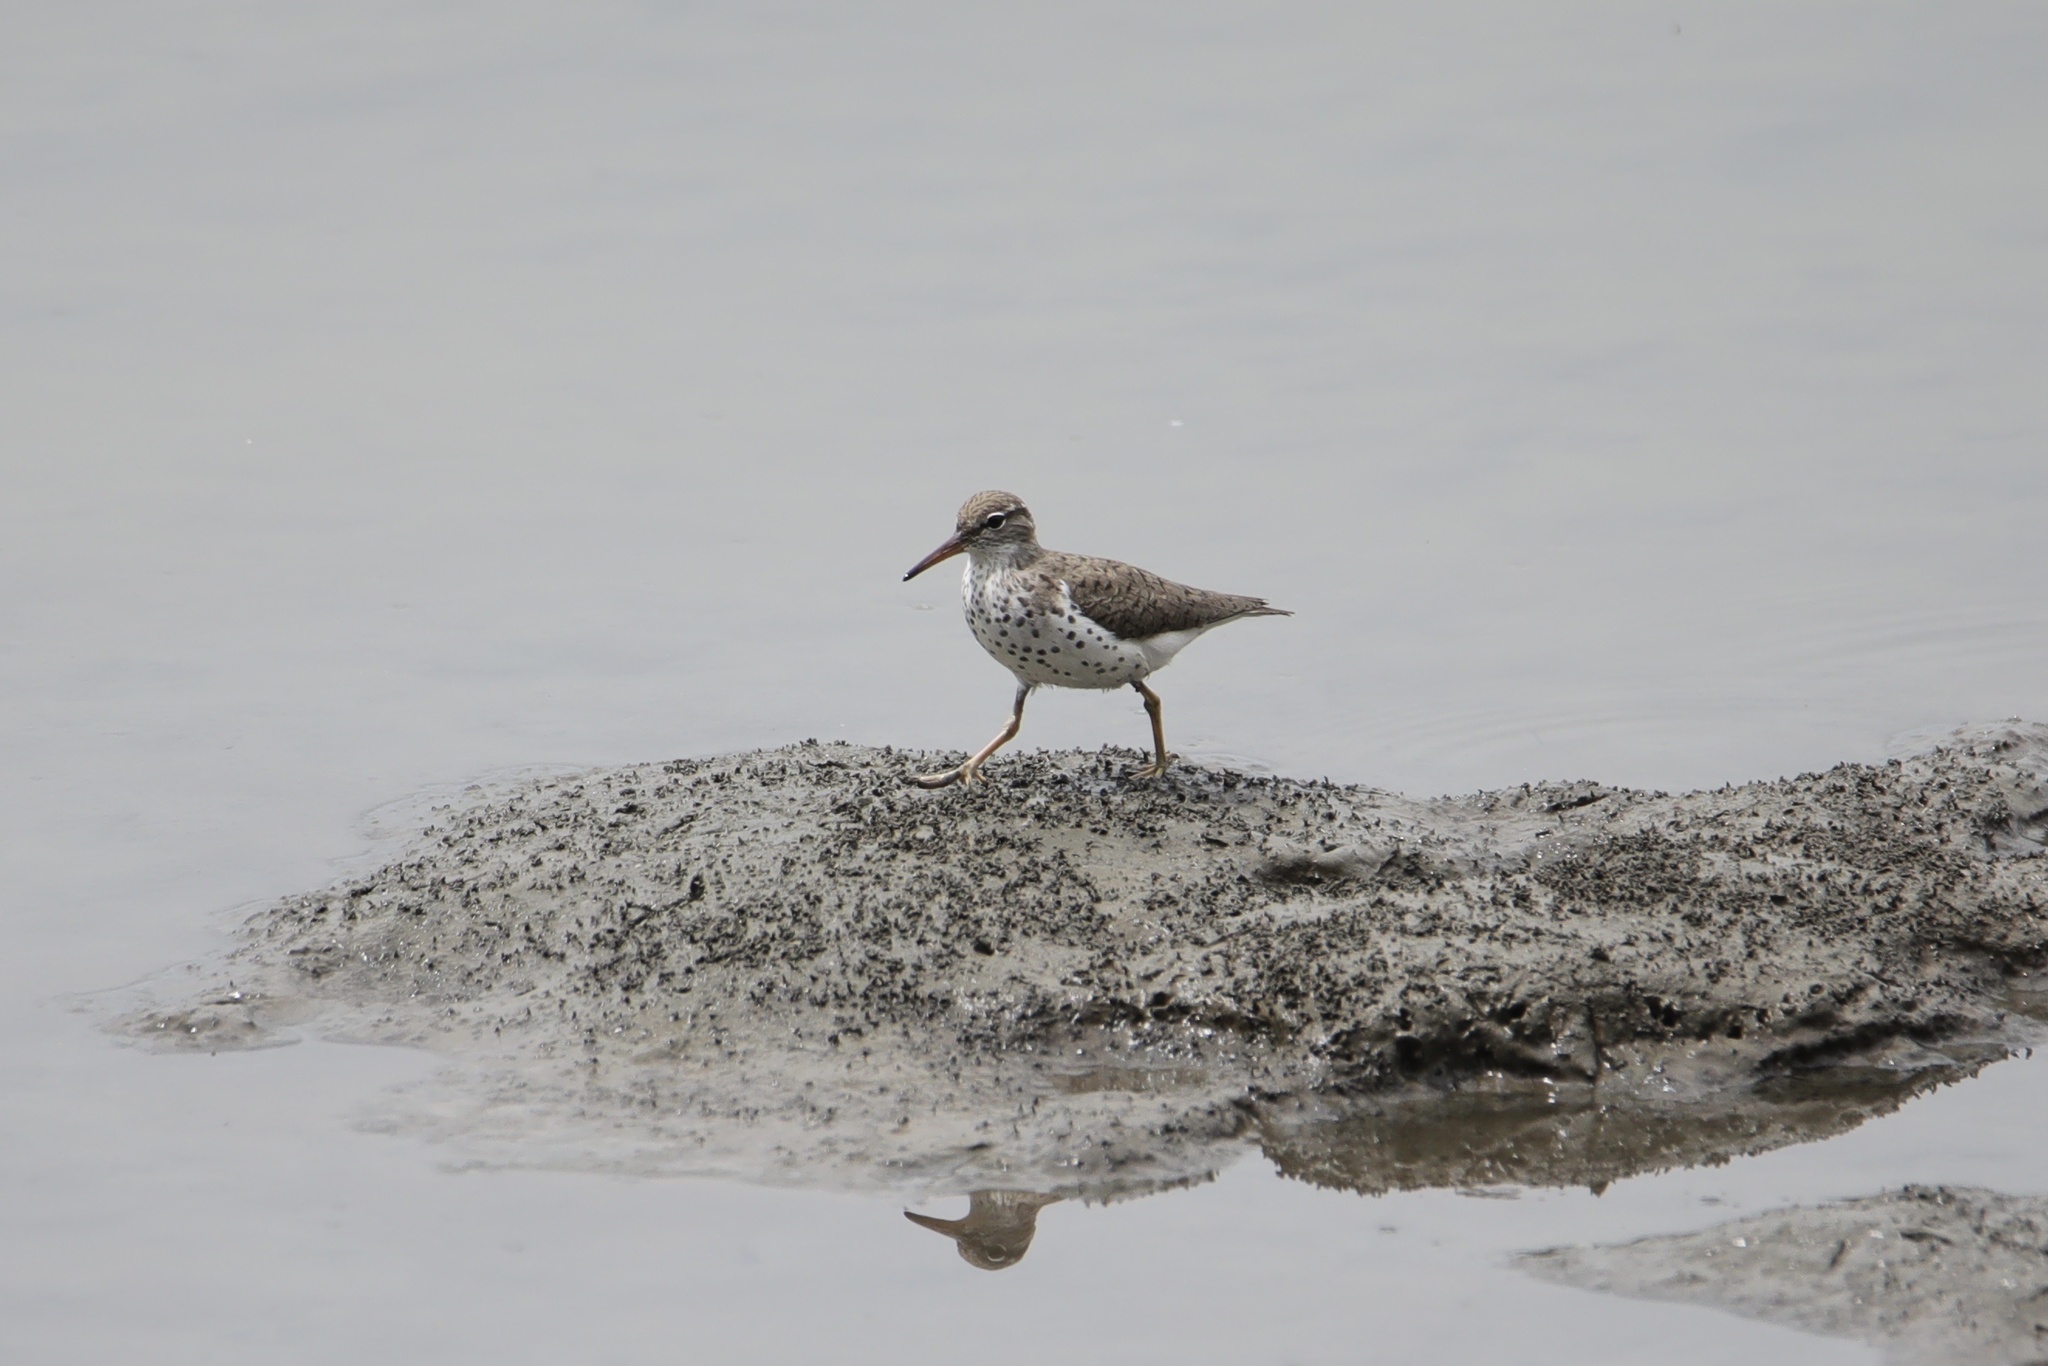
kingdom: Animalia
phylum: Chordata
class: Aves
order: Charadriiformes
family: Scolopacidae
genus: Actitis
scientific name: Actitis macularius
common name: Spotted sandpiper
